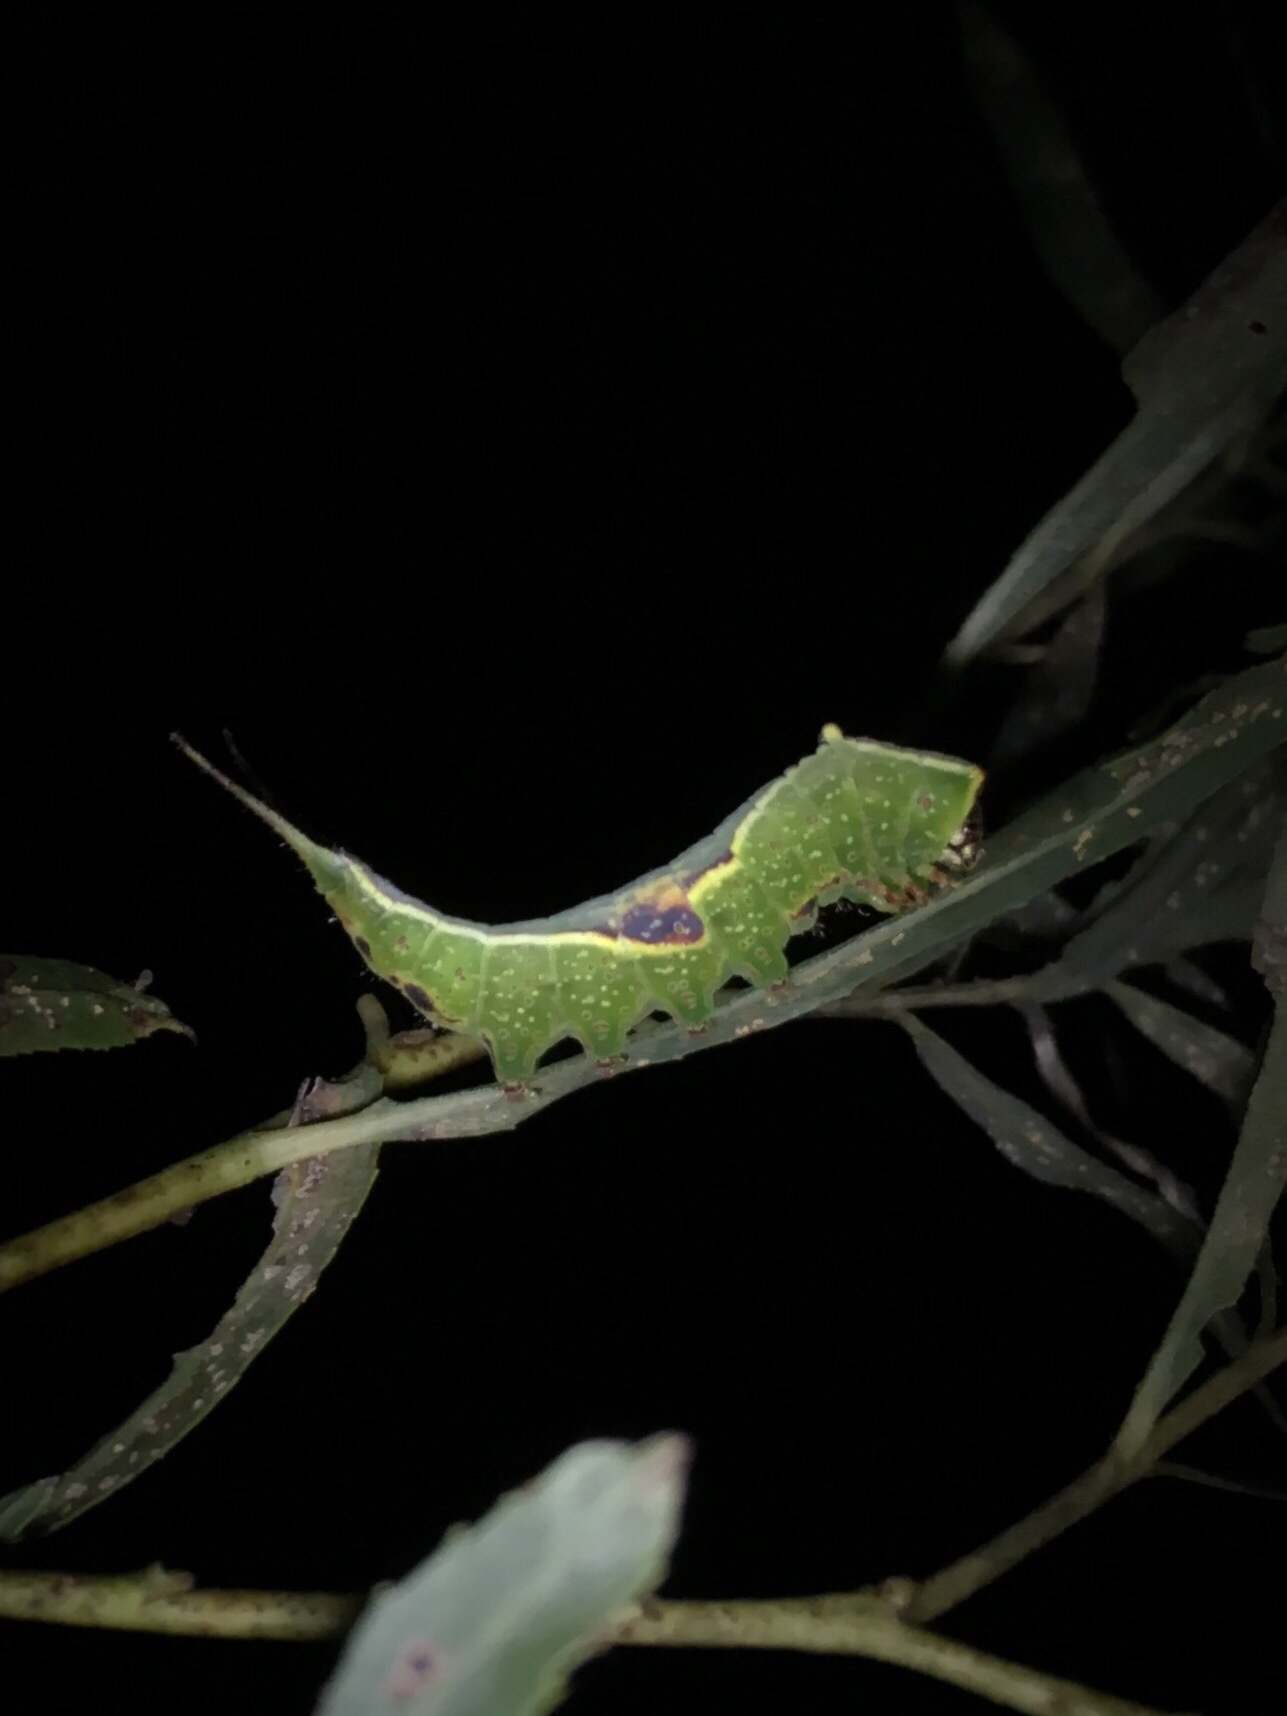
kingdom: Animalia
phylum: Arthropoda
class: Insecta
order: Lepidoptera
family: Notodontidae
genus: Furcula
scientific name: Furcula occidentalis
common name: Western furcula moth
